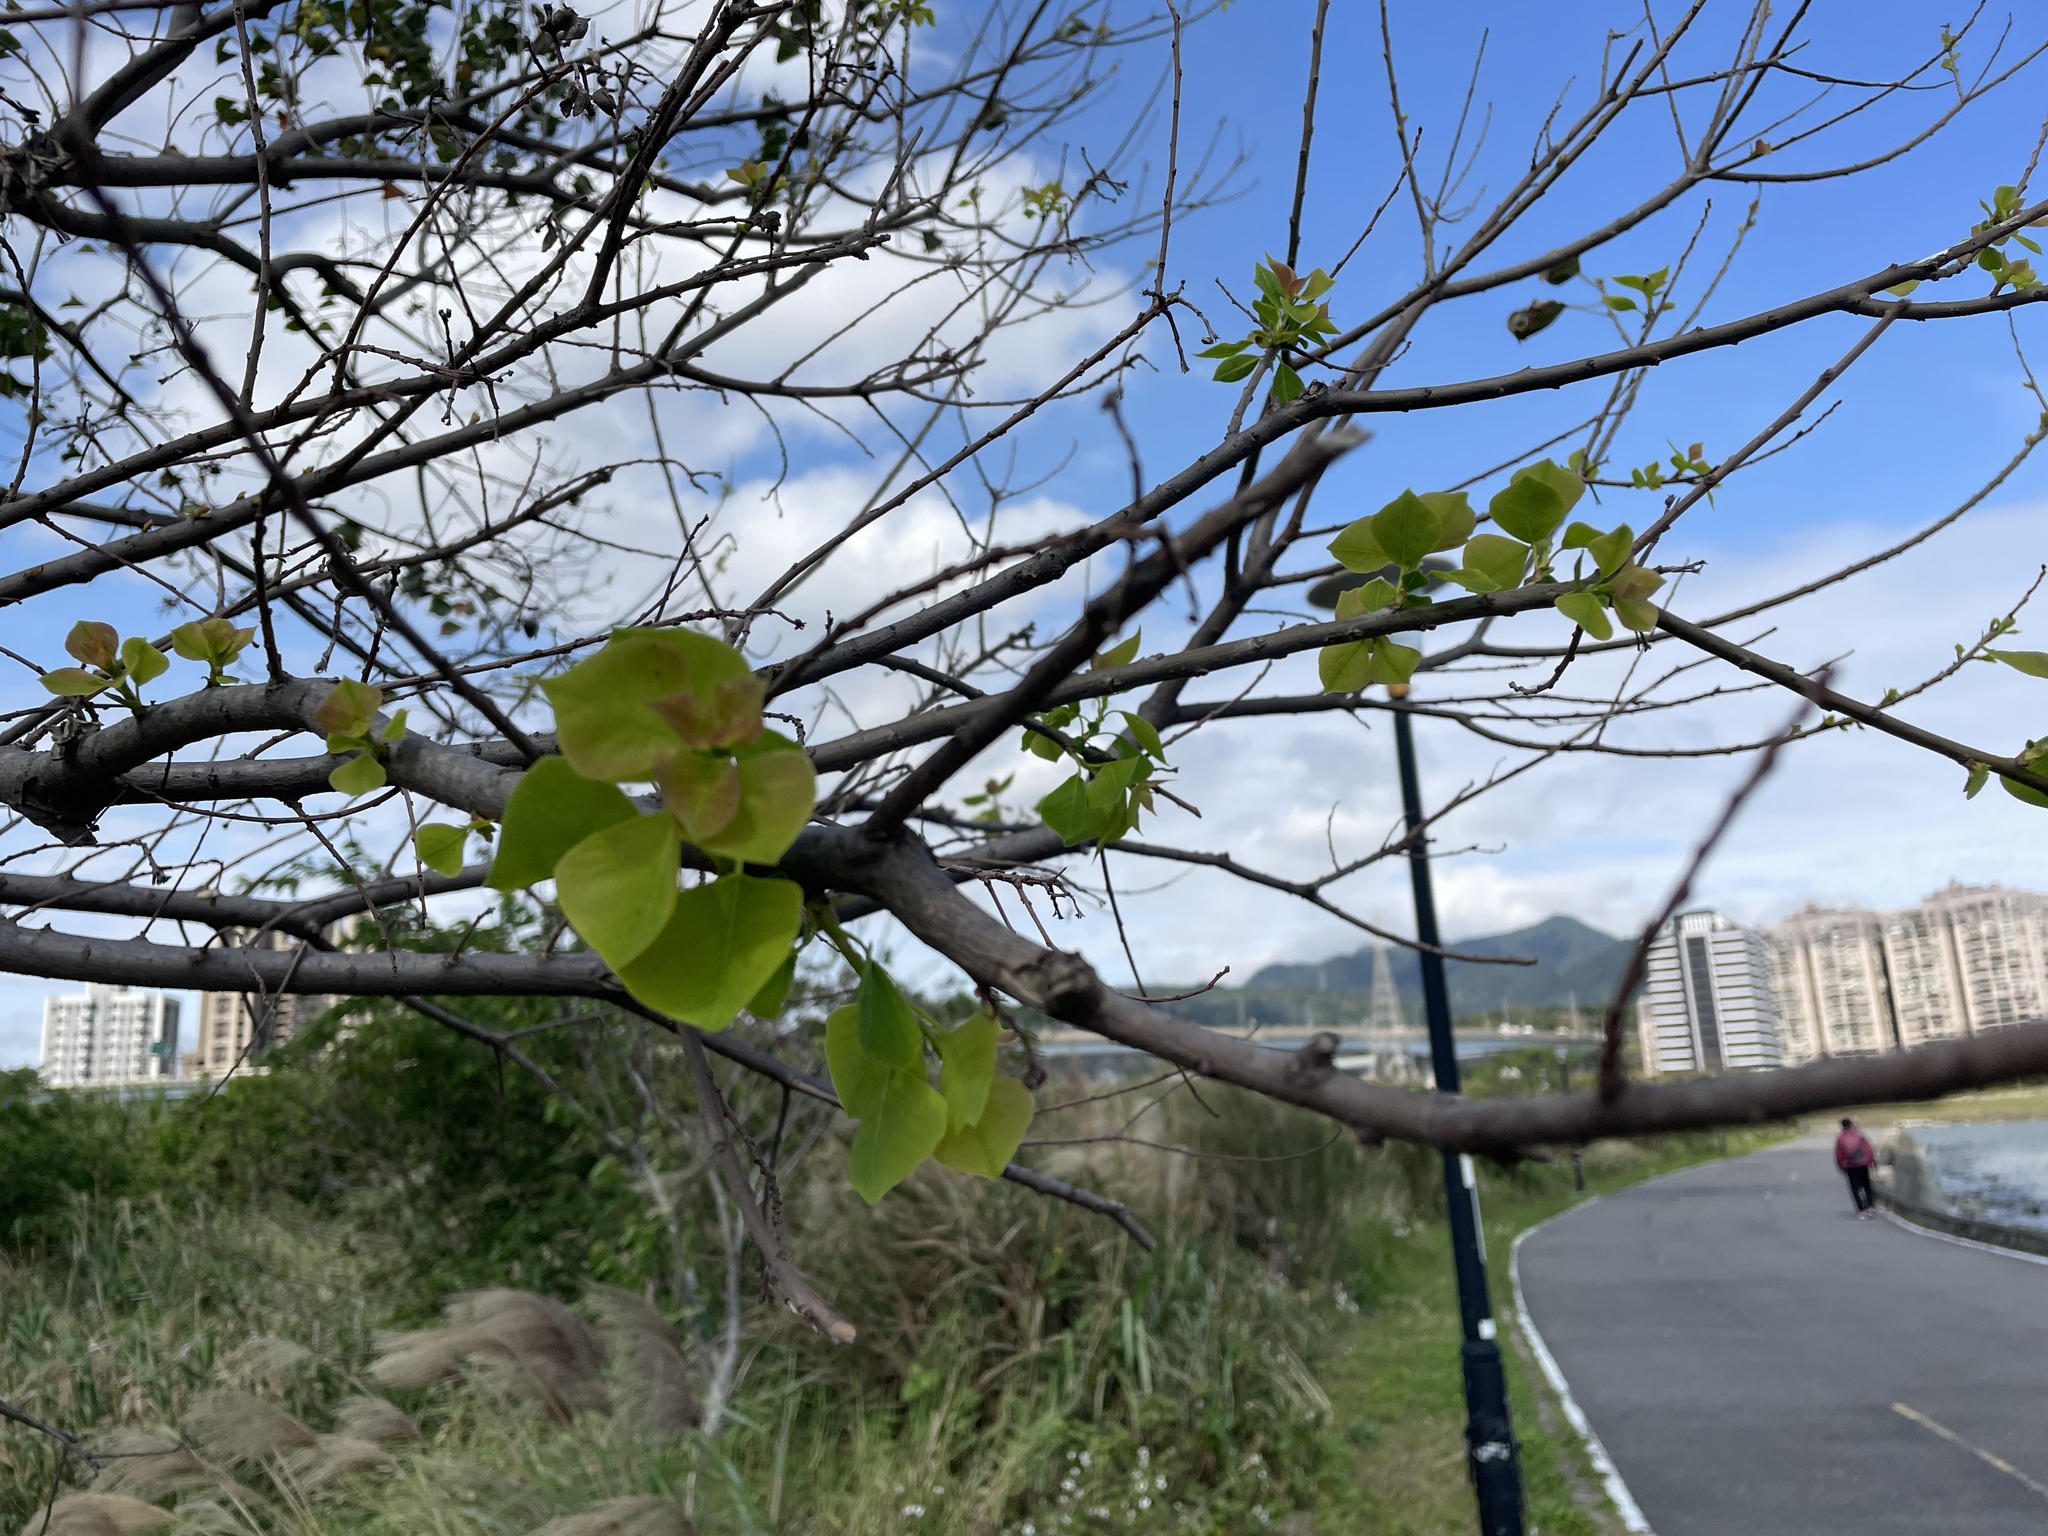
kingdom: Plantae
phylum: Tracheophyta
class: Magnoliopsida
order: Malpighiales
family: Euphorbiaceae
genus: Triadica
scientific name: Triadica sebifera
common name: Chinese tallow
